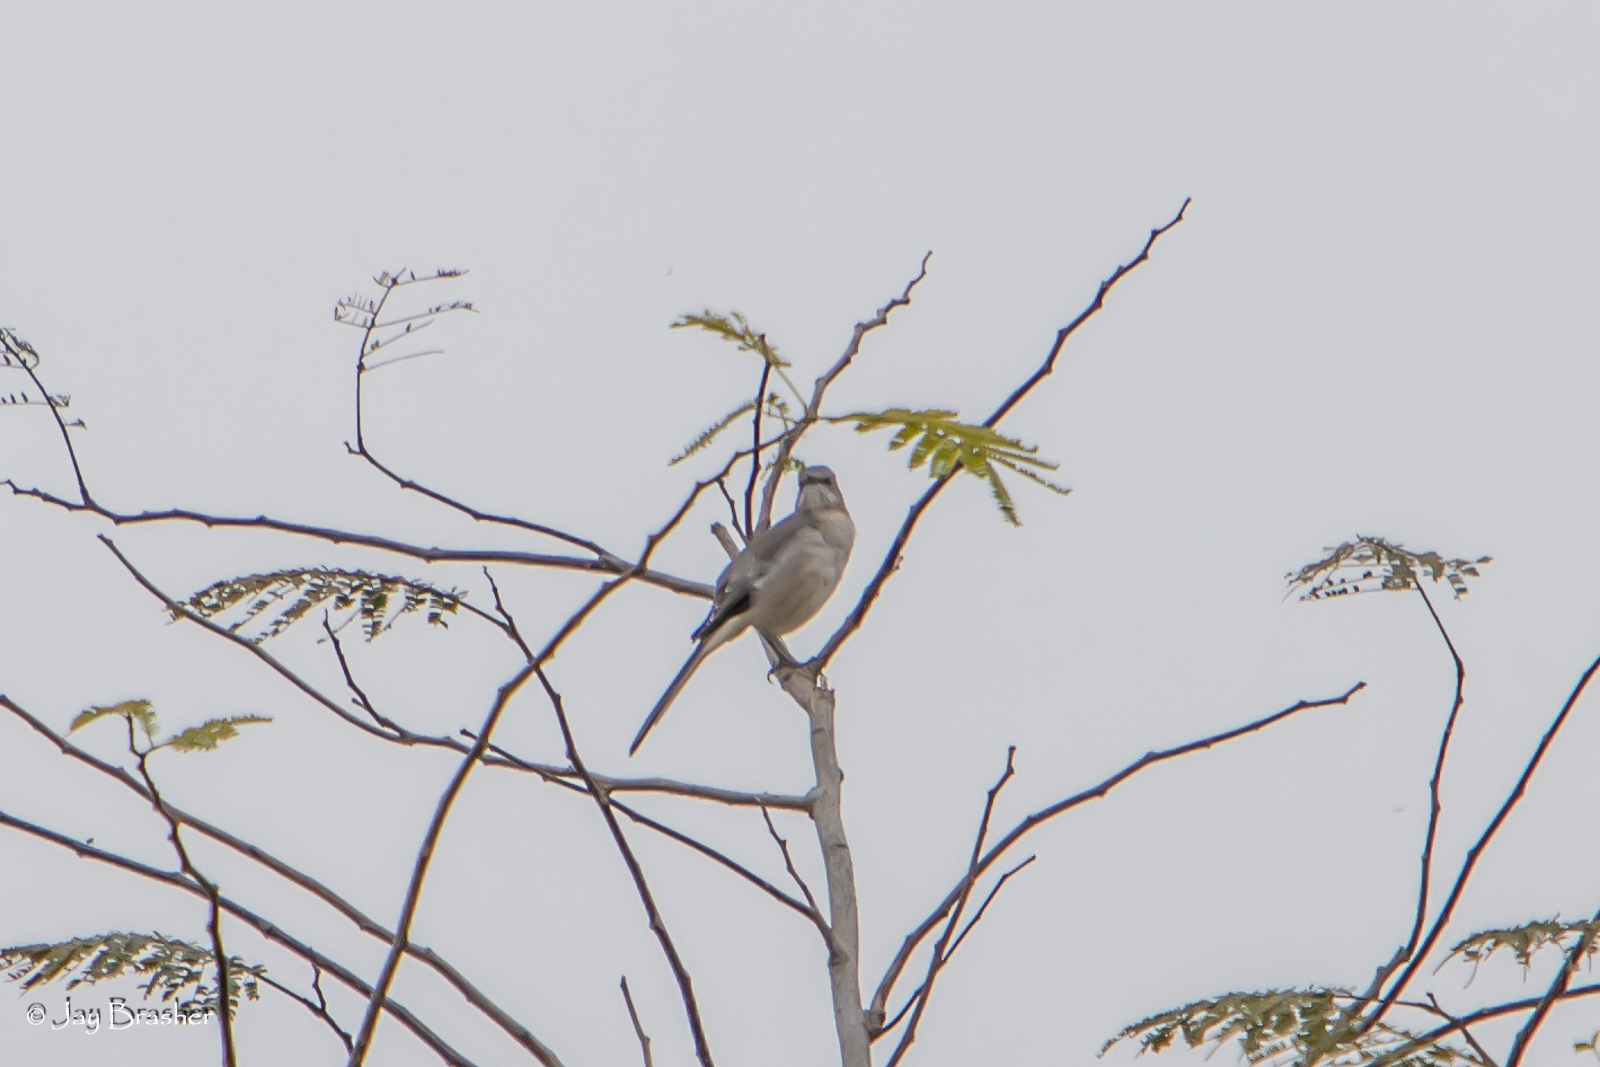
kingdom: Animalia
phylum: Chordata
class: Aves
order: Passeriformes
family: Mimidae
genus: Mimus
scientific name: Mimus polyglottos
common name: Northern mockingbird
